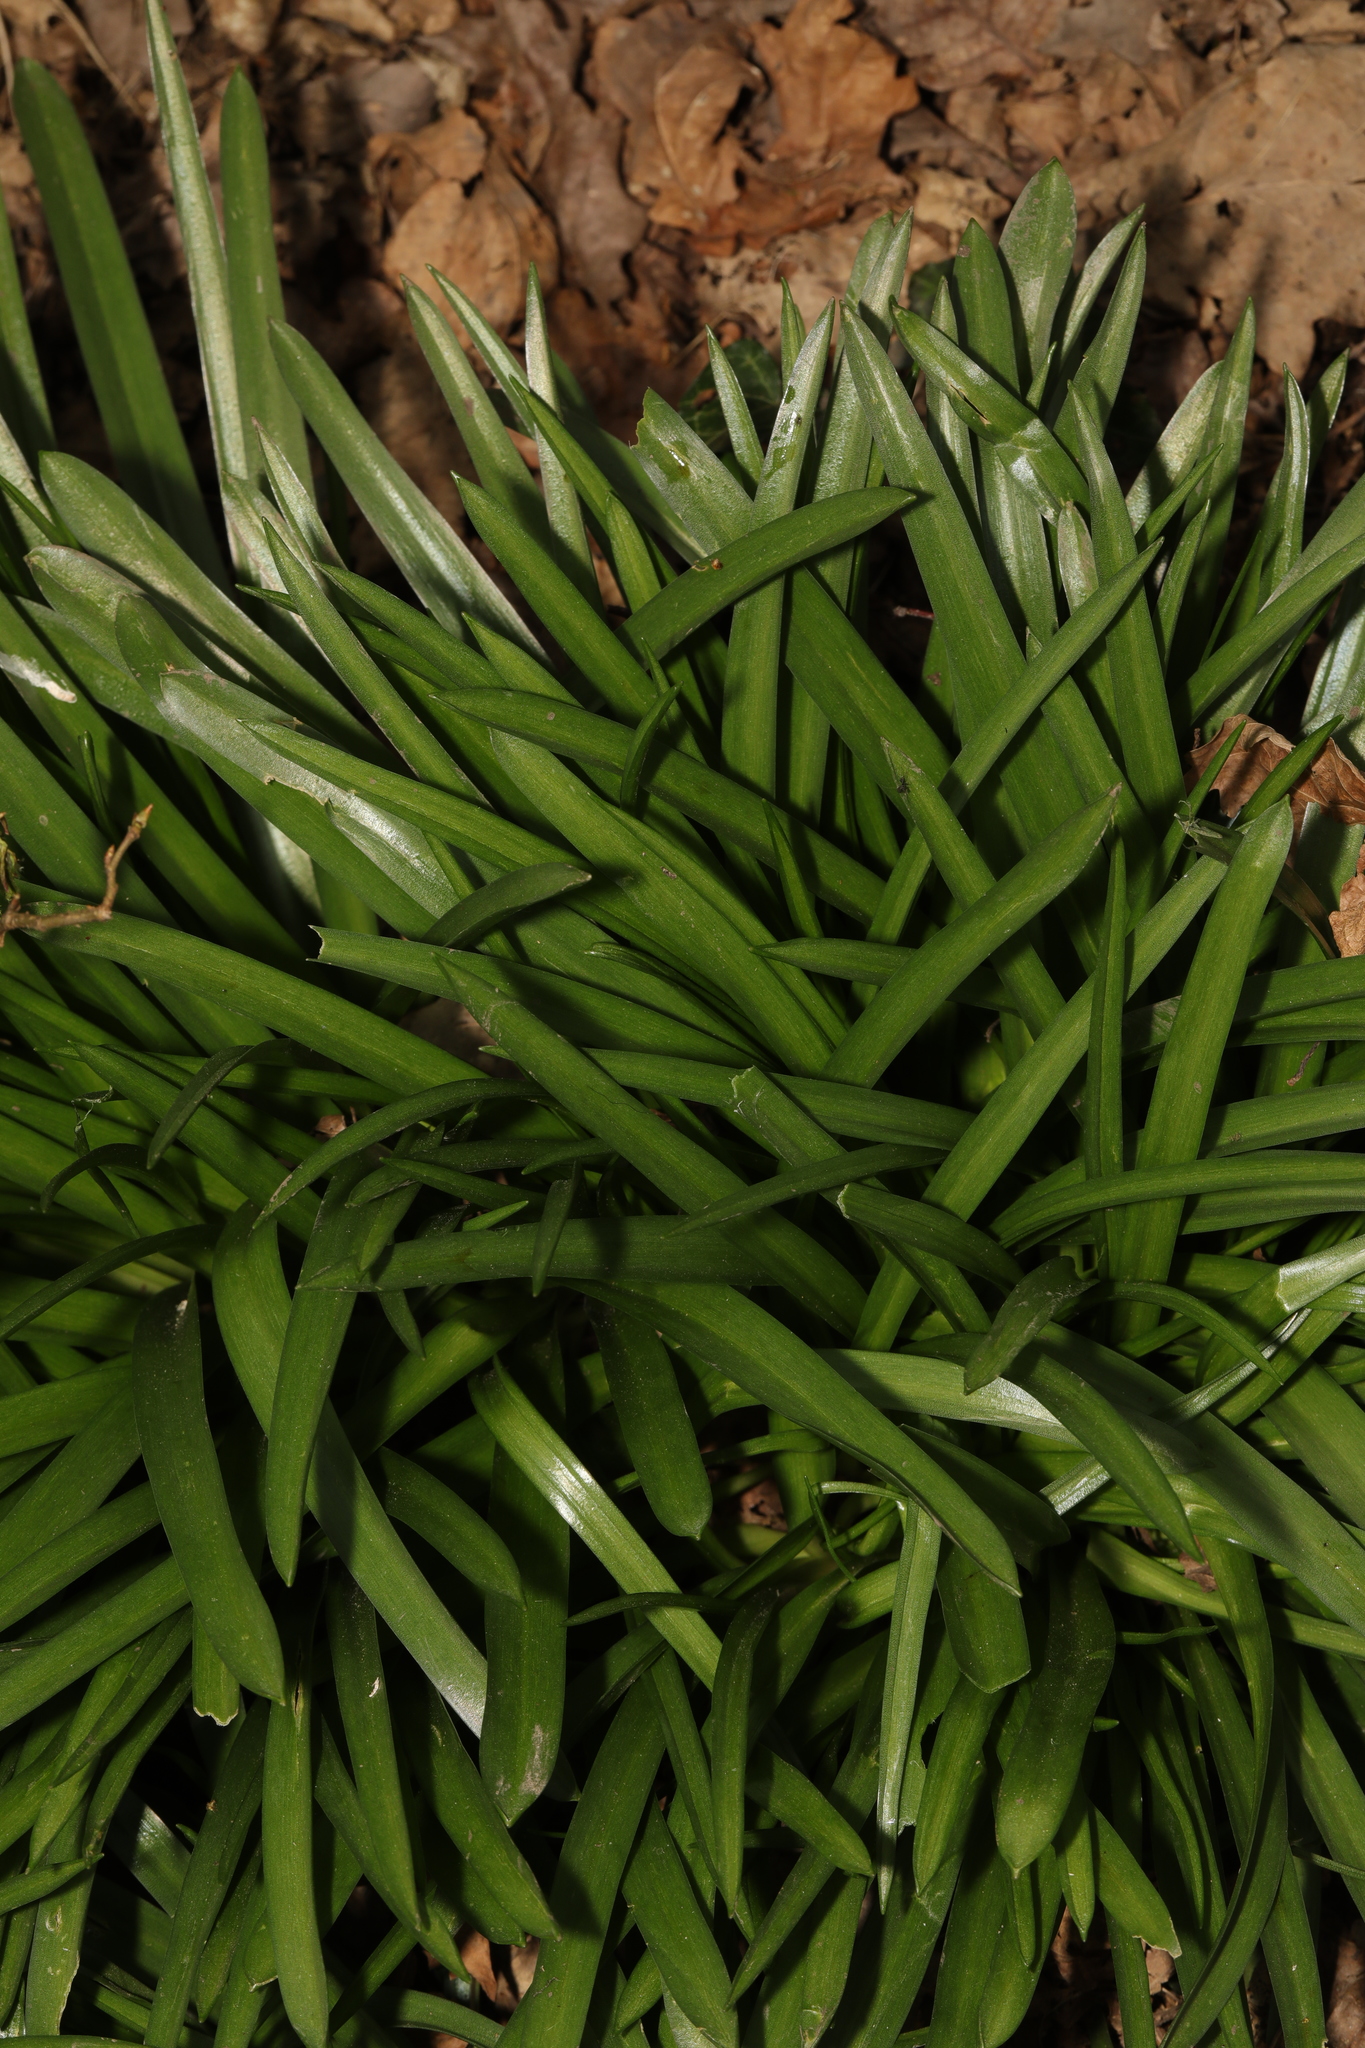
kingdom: Plantae
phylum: Tracheophyta
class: Liliopsida
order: Asparagales
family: Asparagaceae
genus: Hyacinthoides
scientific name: Hyacinthoides massartiana
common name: Hyacinthoides
